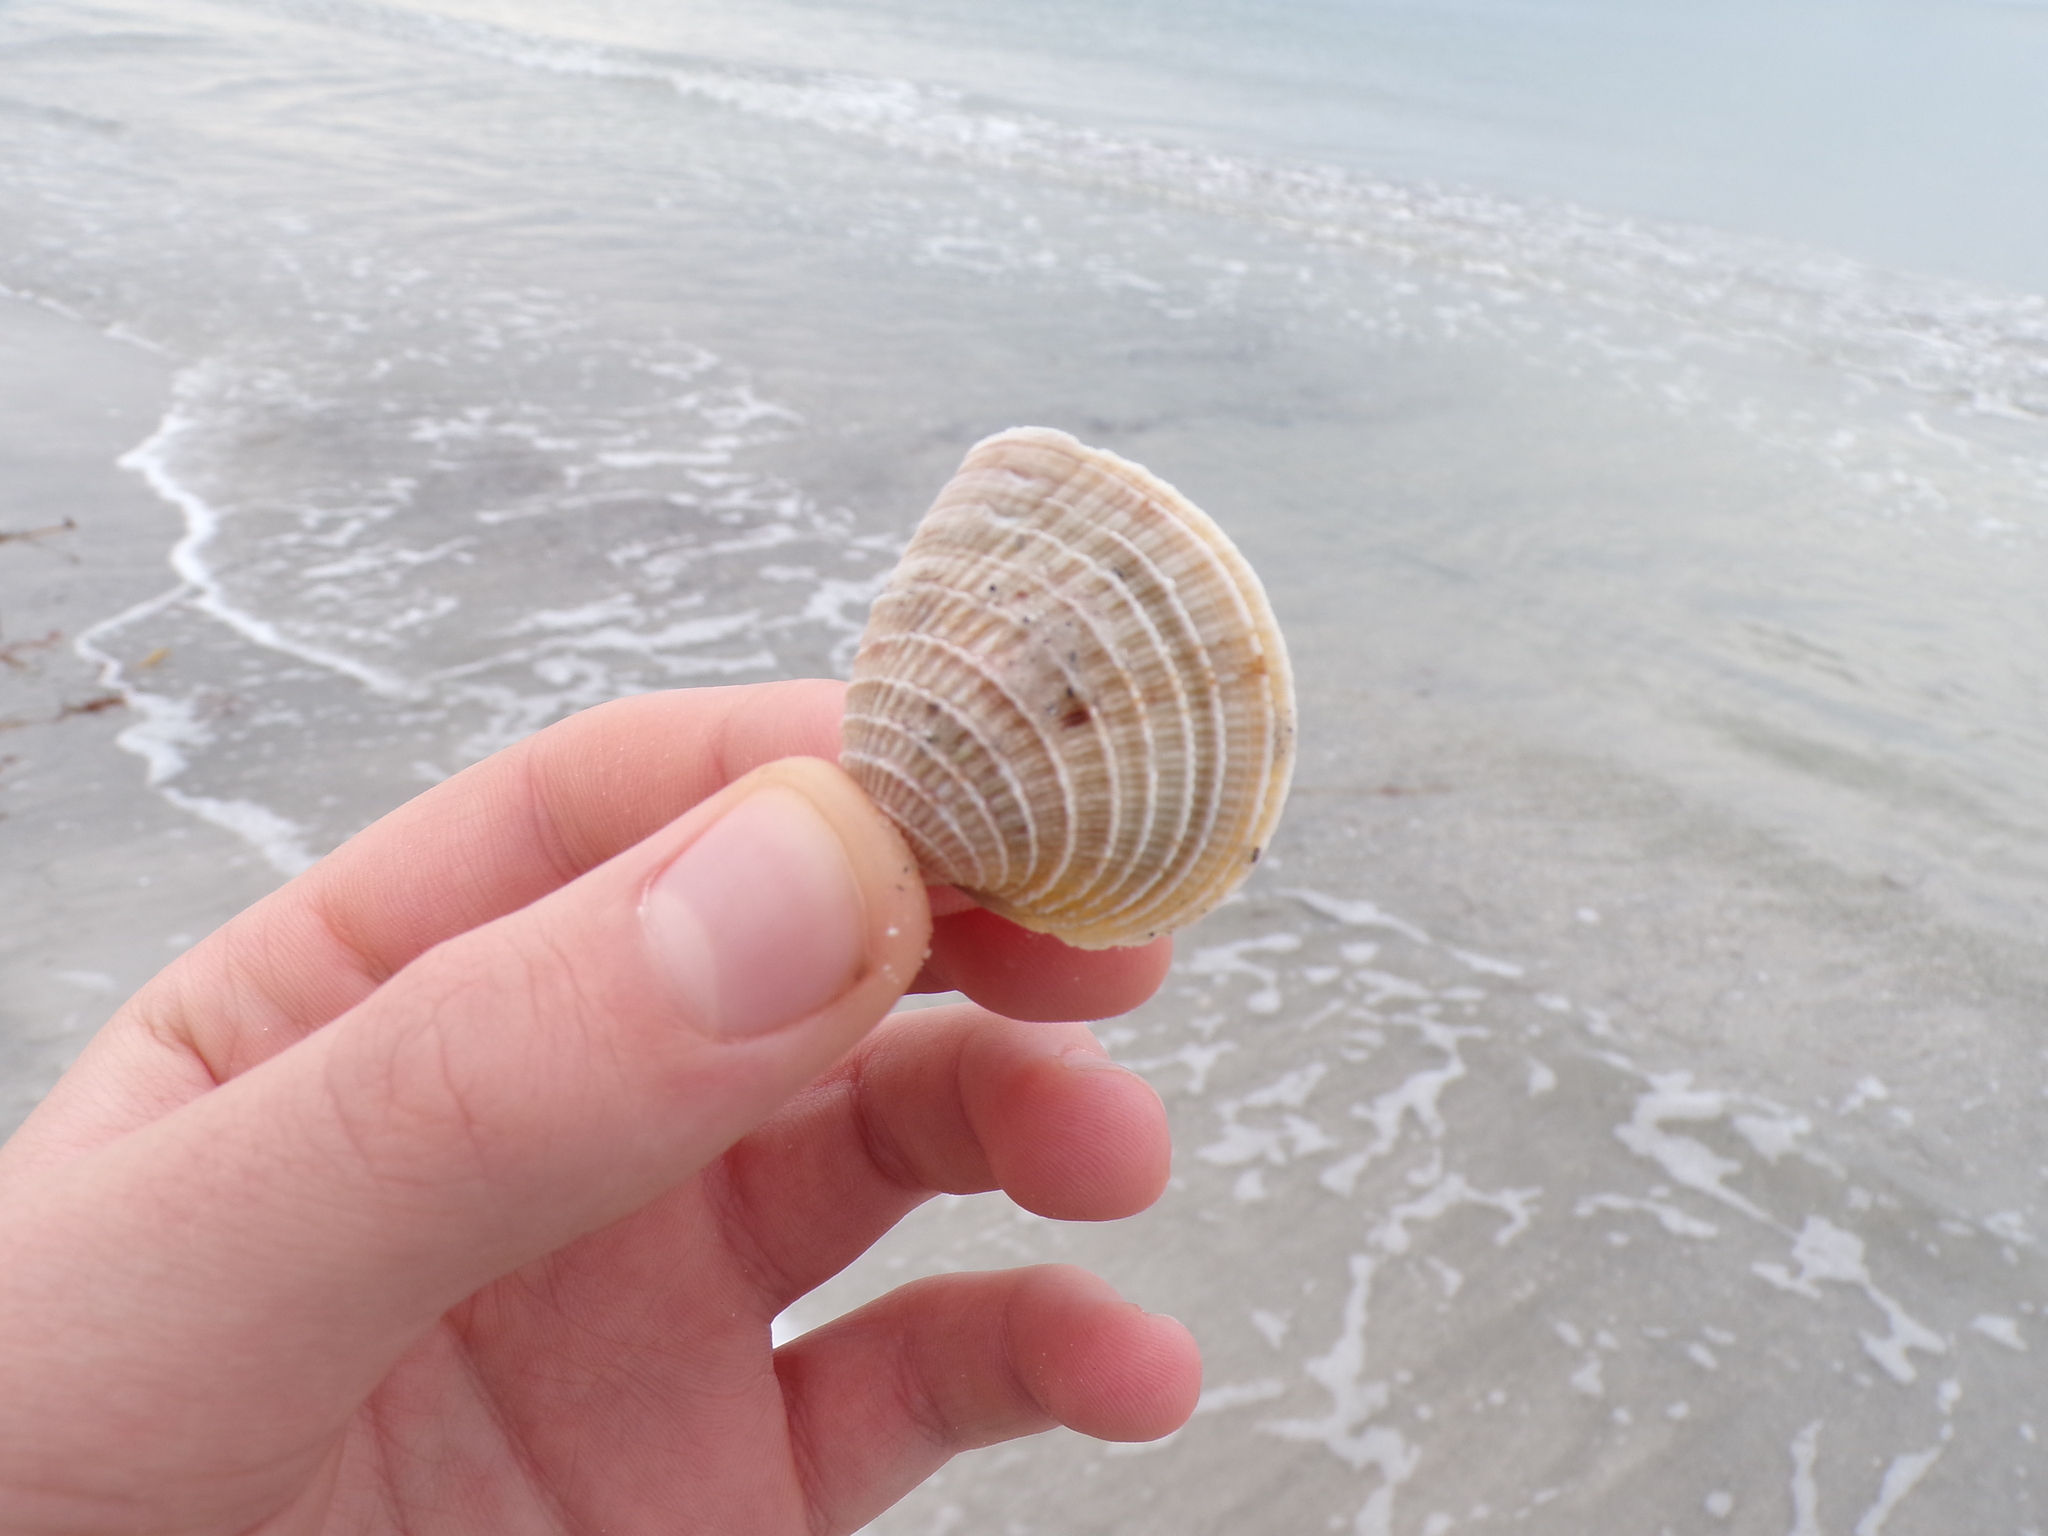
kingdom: Animalia
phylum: Mollusca
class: Bivalvia
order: Venerida
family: Veneridae
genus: Chione
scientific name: Chione elevata
